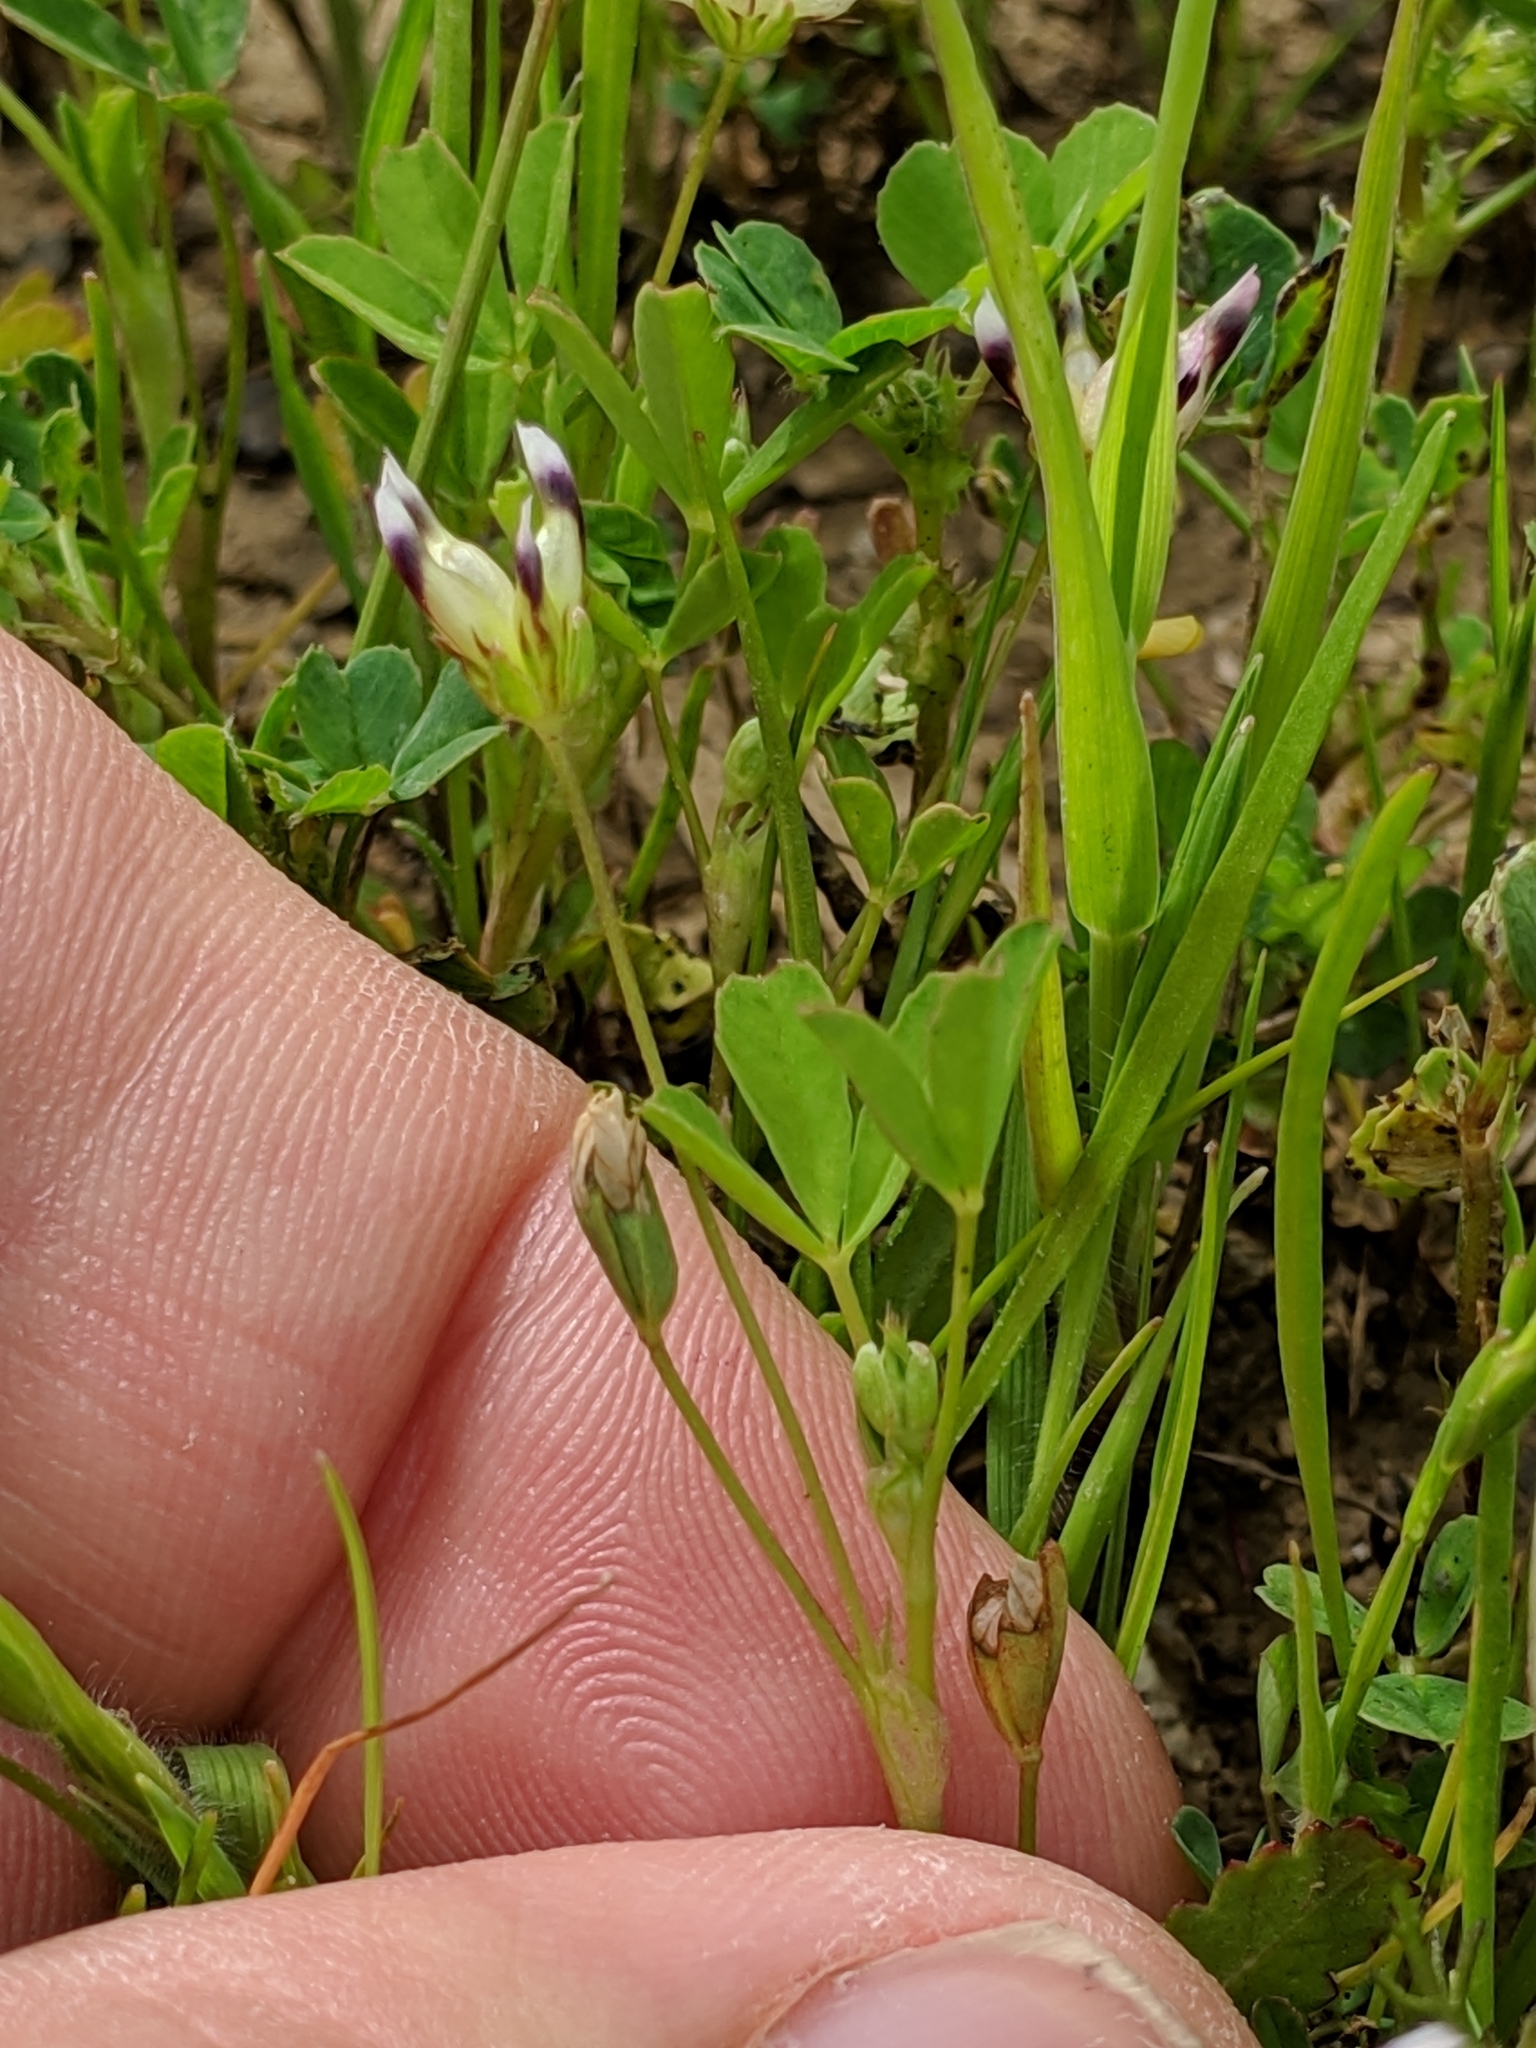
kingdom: Plantae
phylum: Tracheophyta
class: Magnoliopsida
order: Fabales
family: Fabaceae
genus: Trifolium
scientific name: Trifolium depauperatum
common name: Poverty clover
